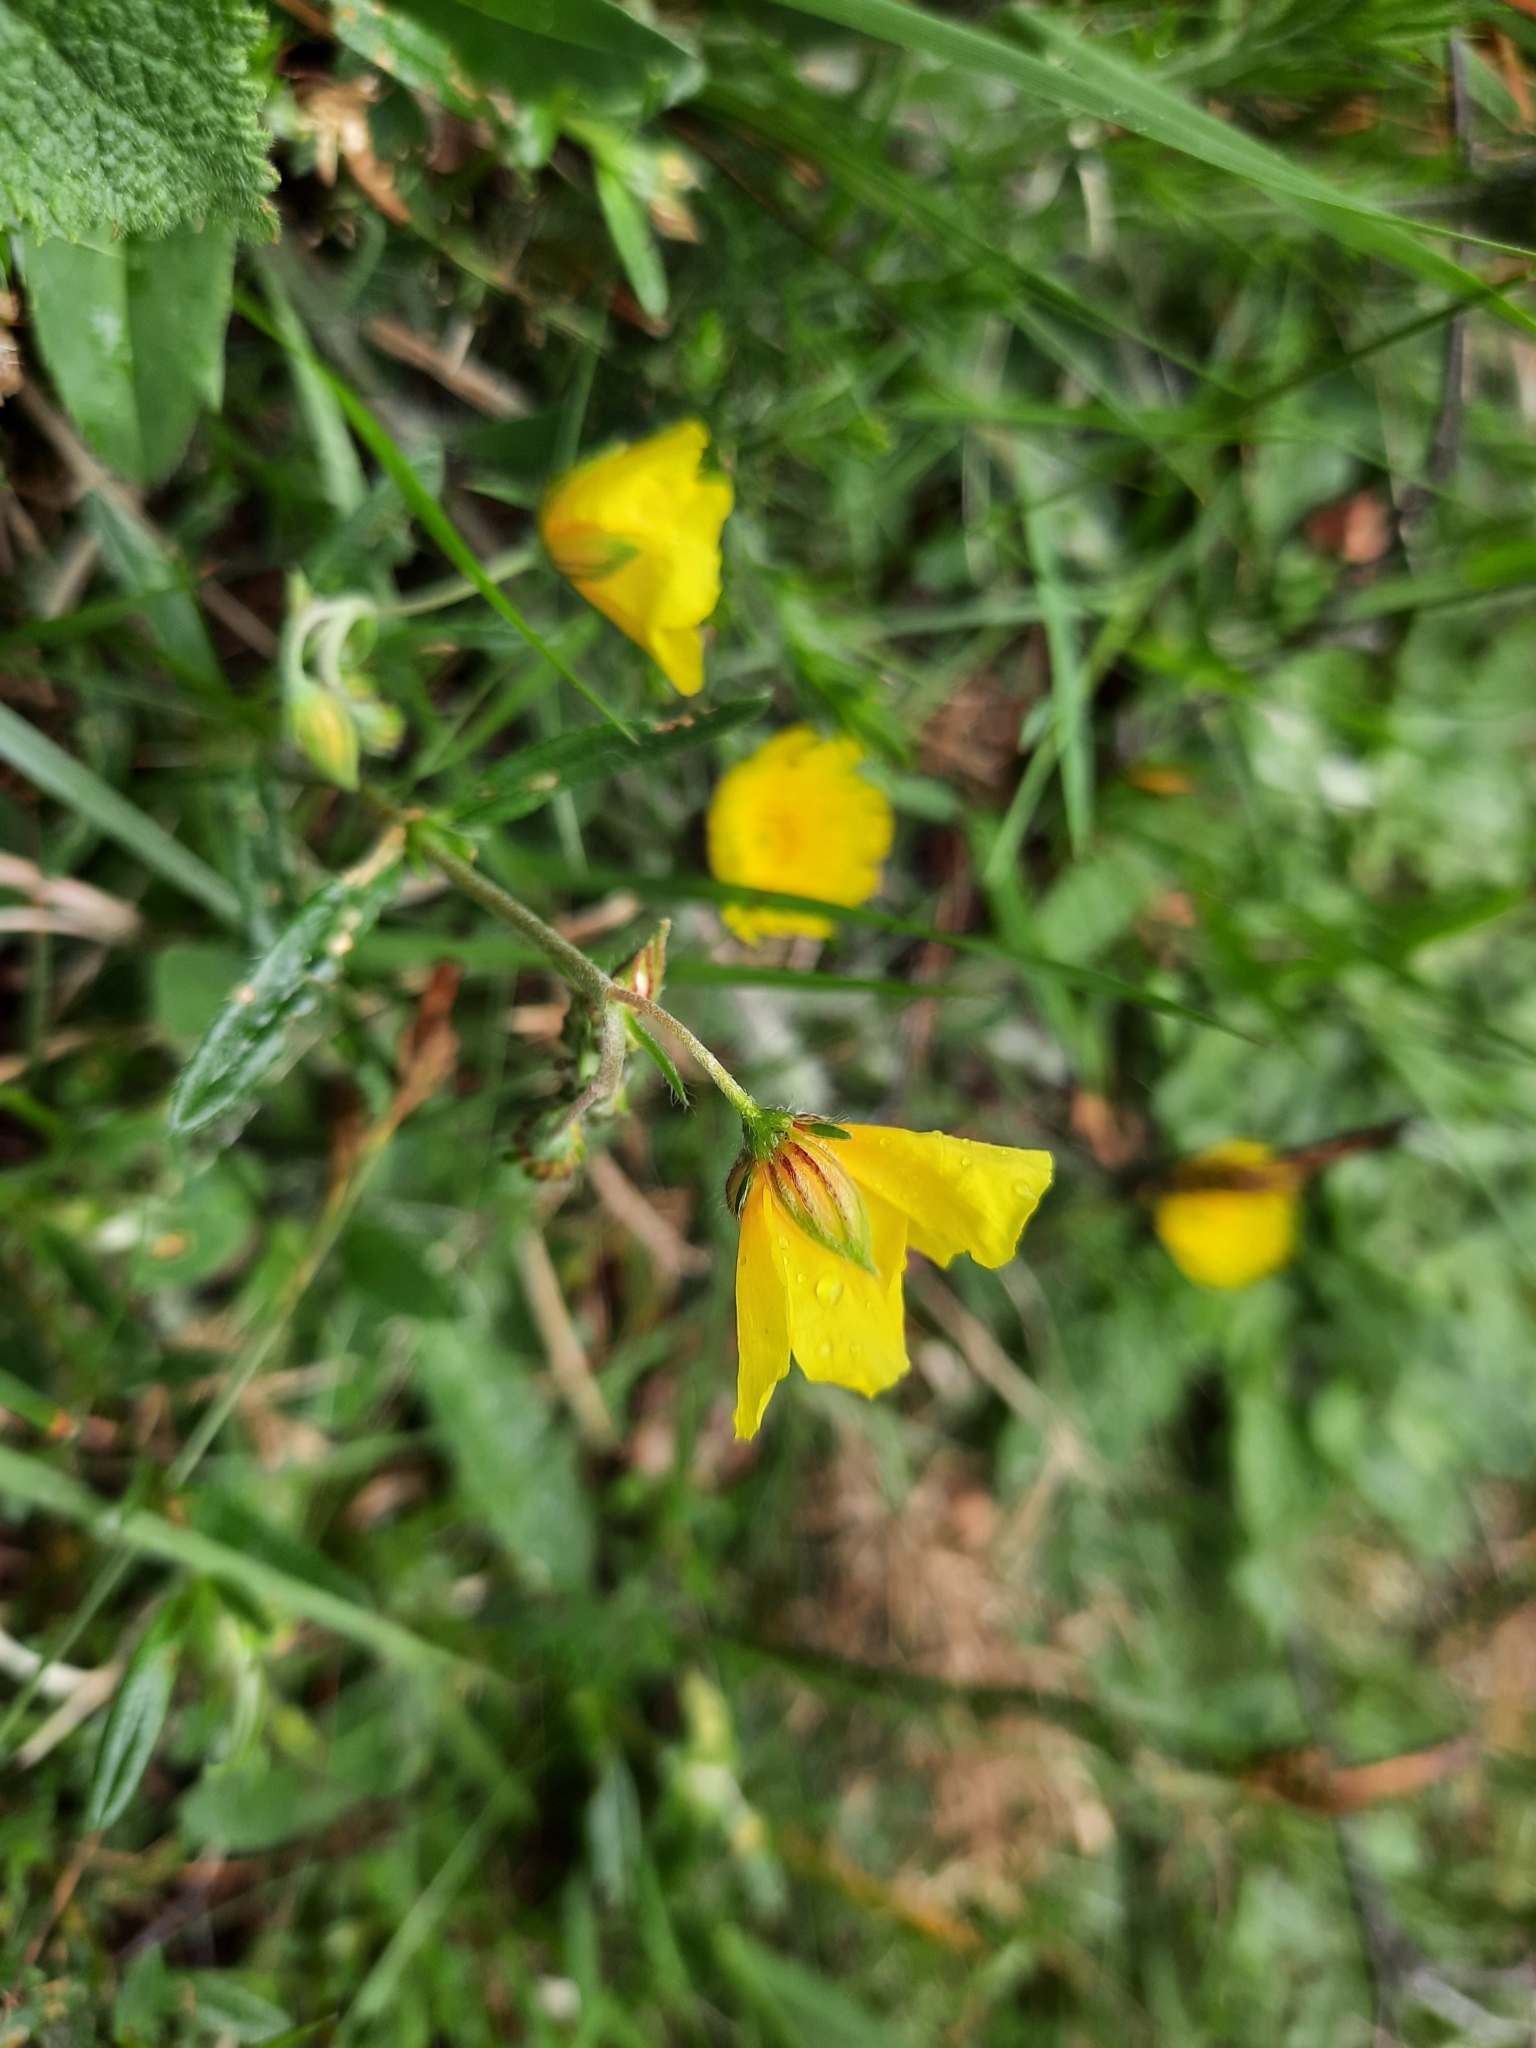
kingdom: Plantae
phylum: Tracheophyta
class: Magnoliopsida
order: Malvales
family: Cistaceae
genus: Helianthemum
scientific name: Helianthemum nummularium
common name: Common rock-rose
